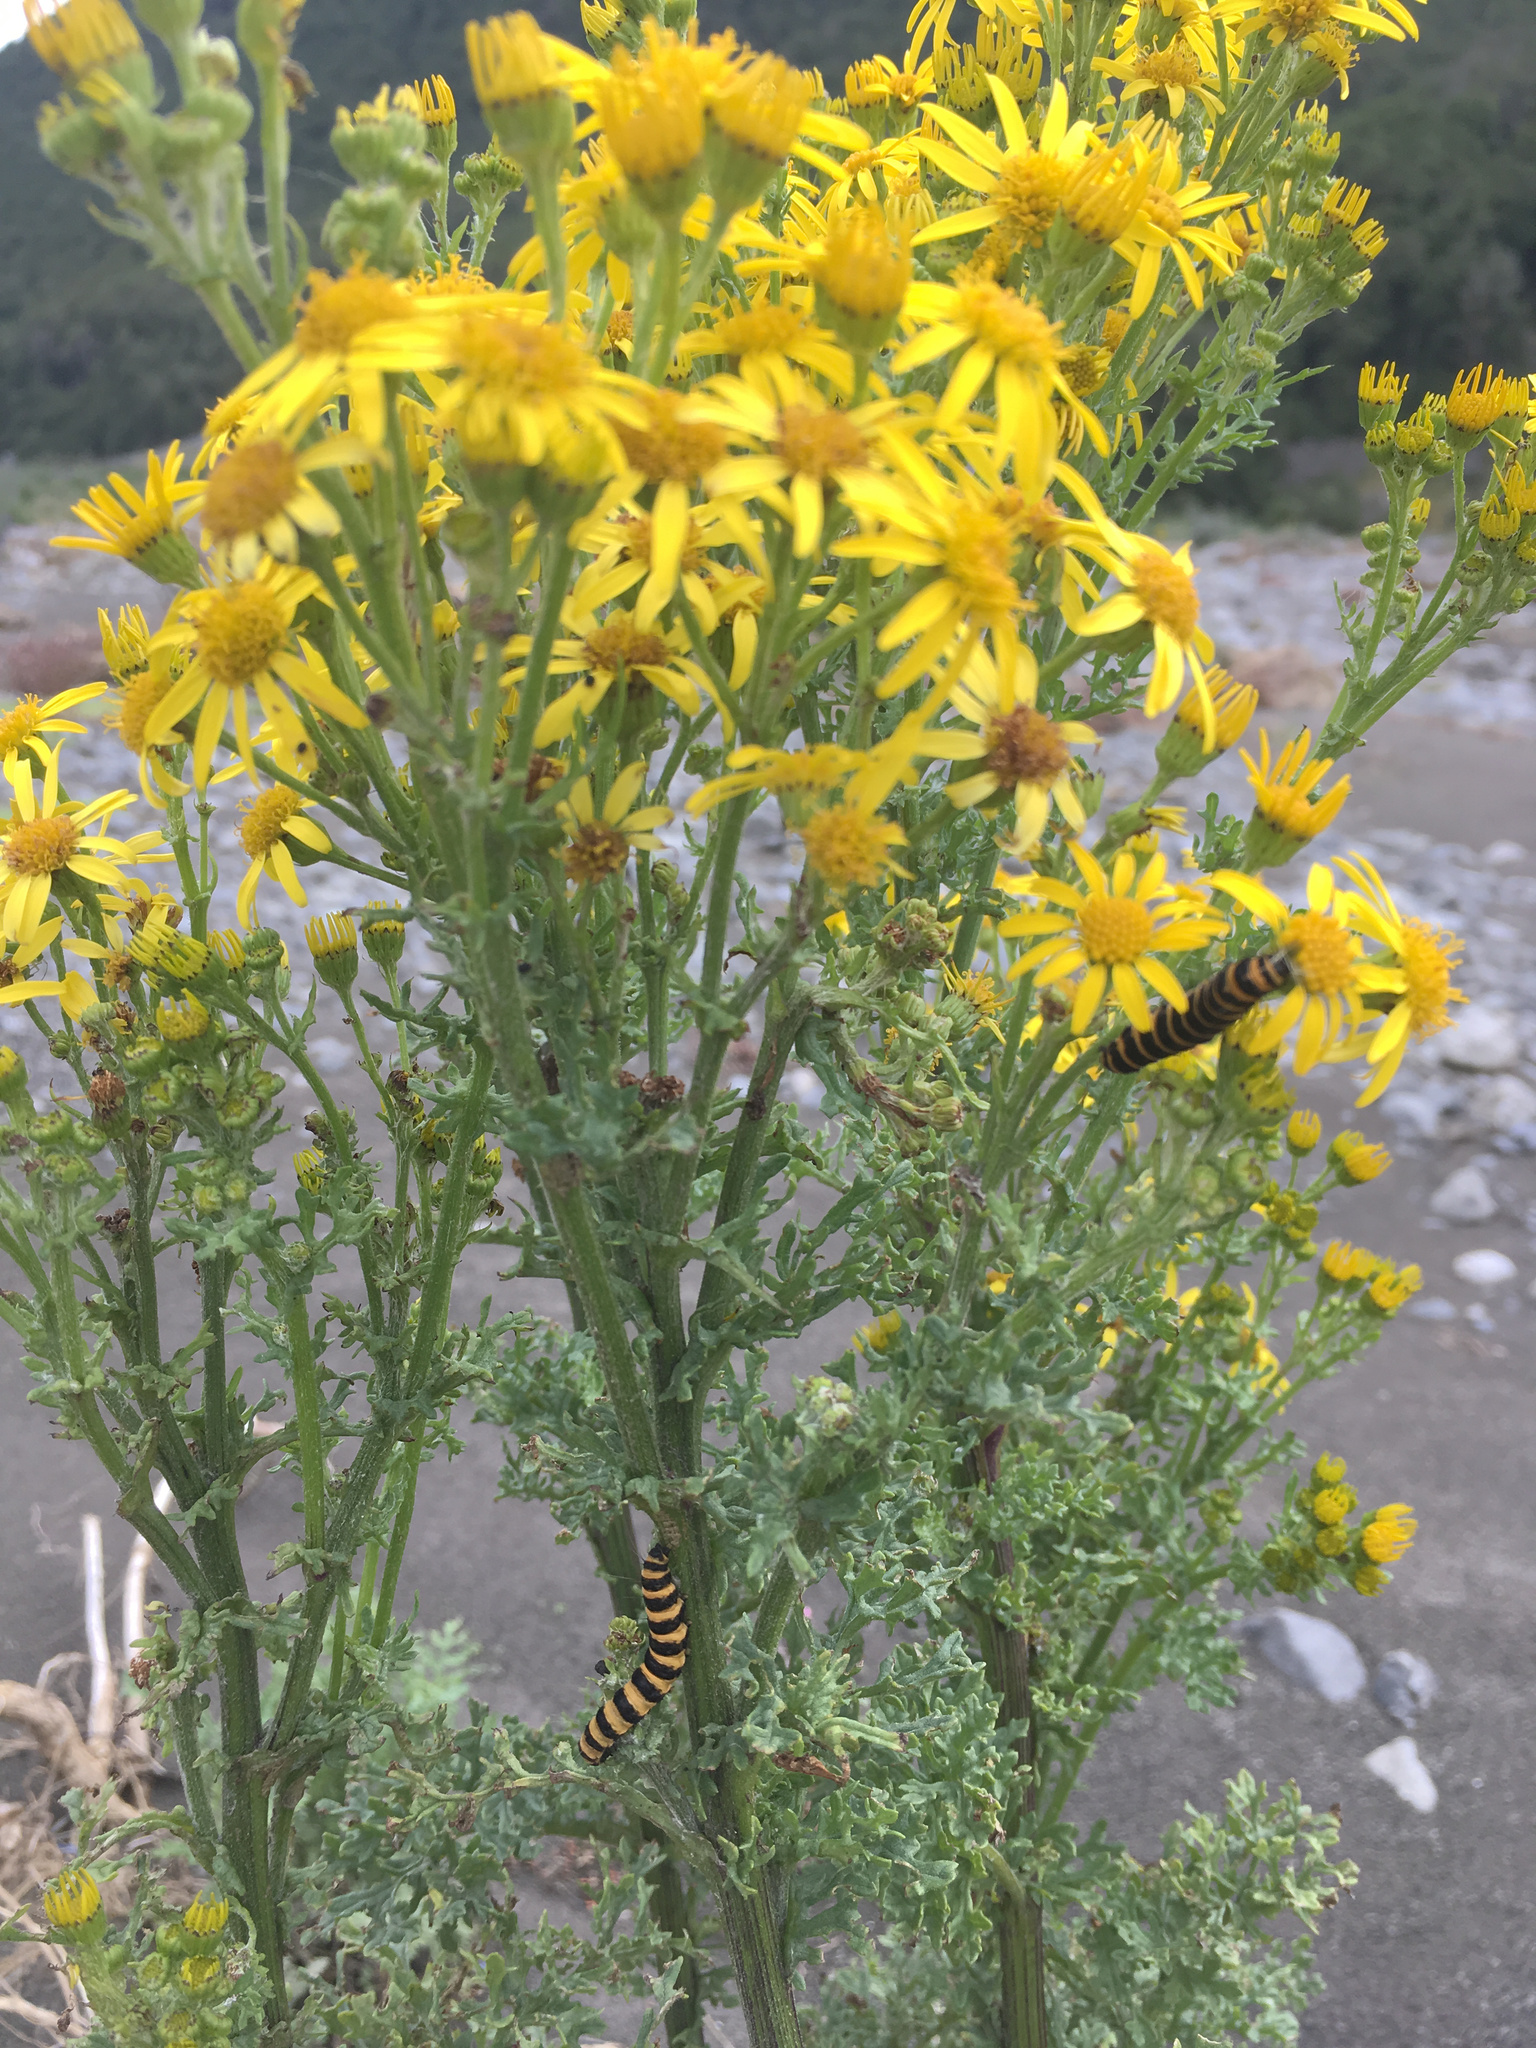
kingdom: Plantae
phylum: Tracheophyta
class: Magnoliopsida
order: Asterales
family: Asteraceae
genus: Jacobaea
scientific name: Jacobaea vulgaris
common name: Stinking willie
